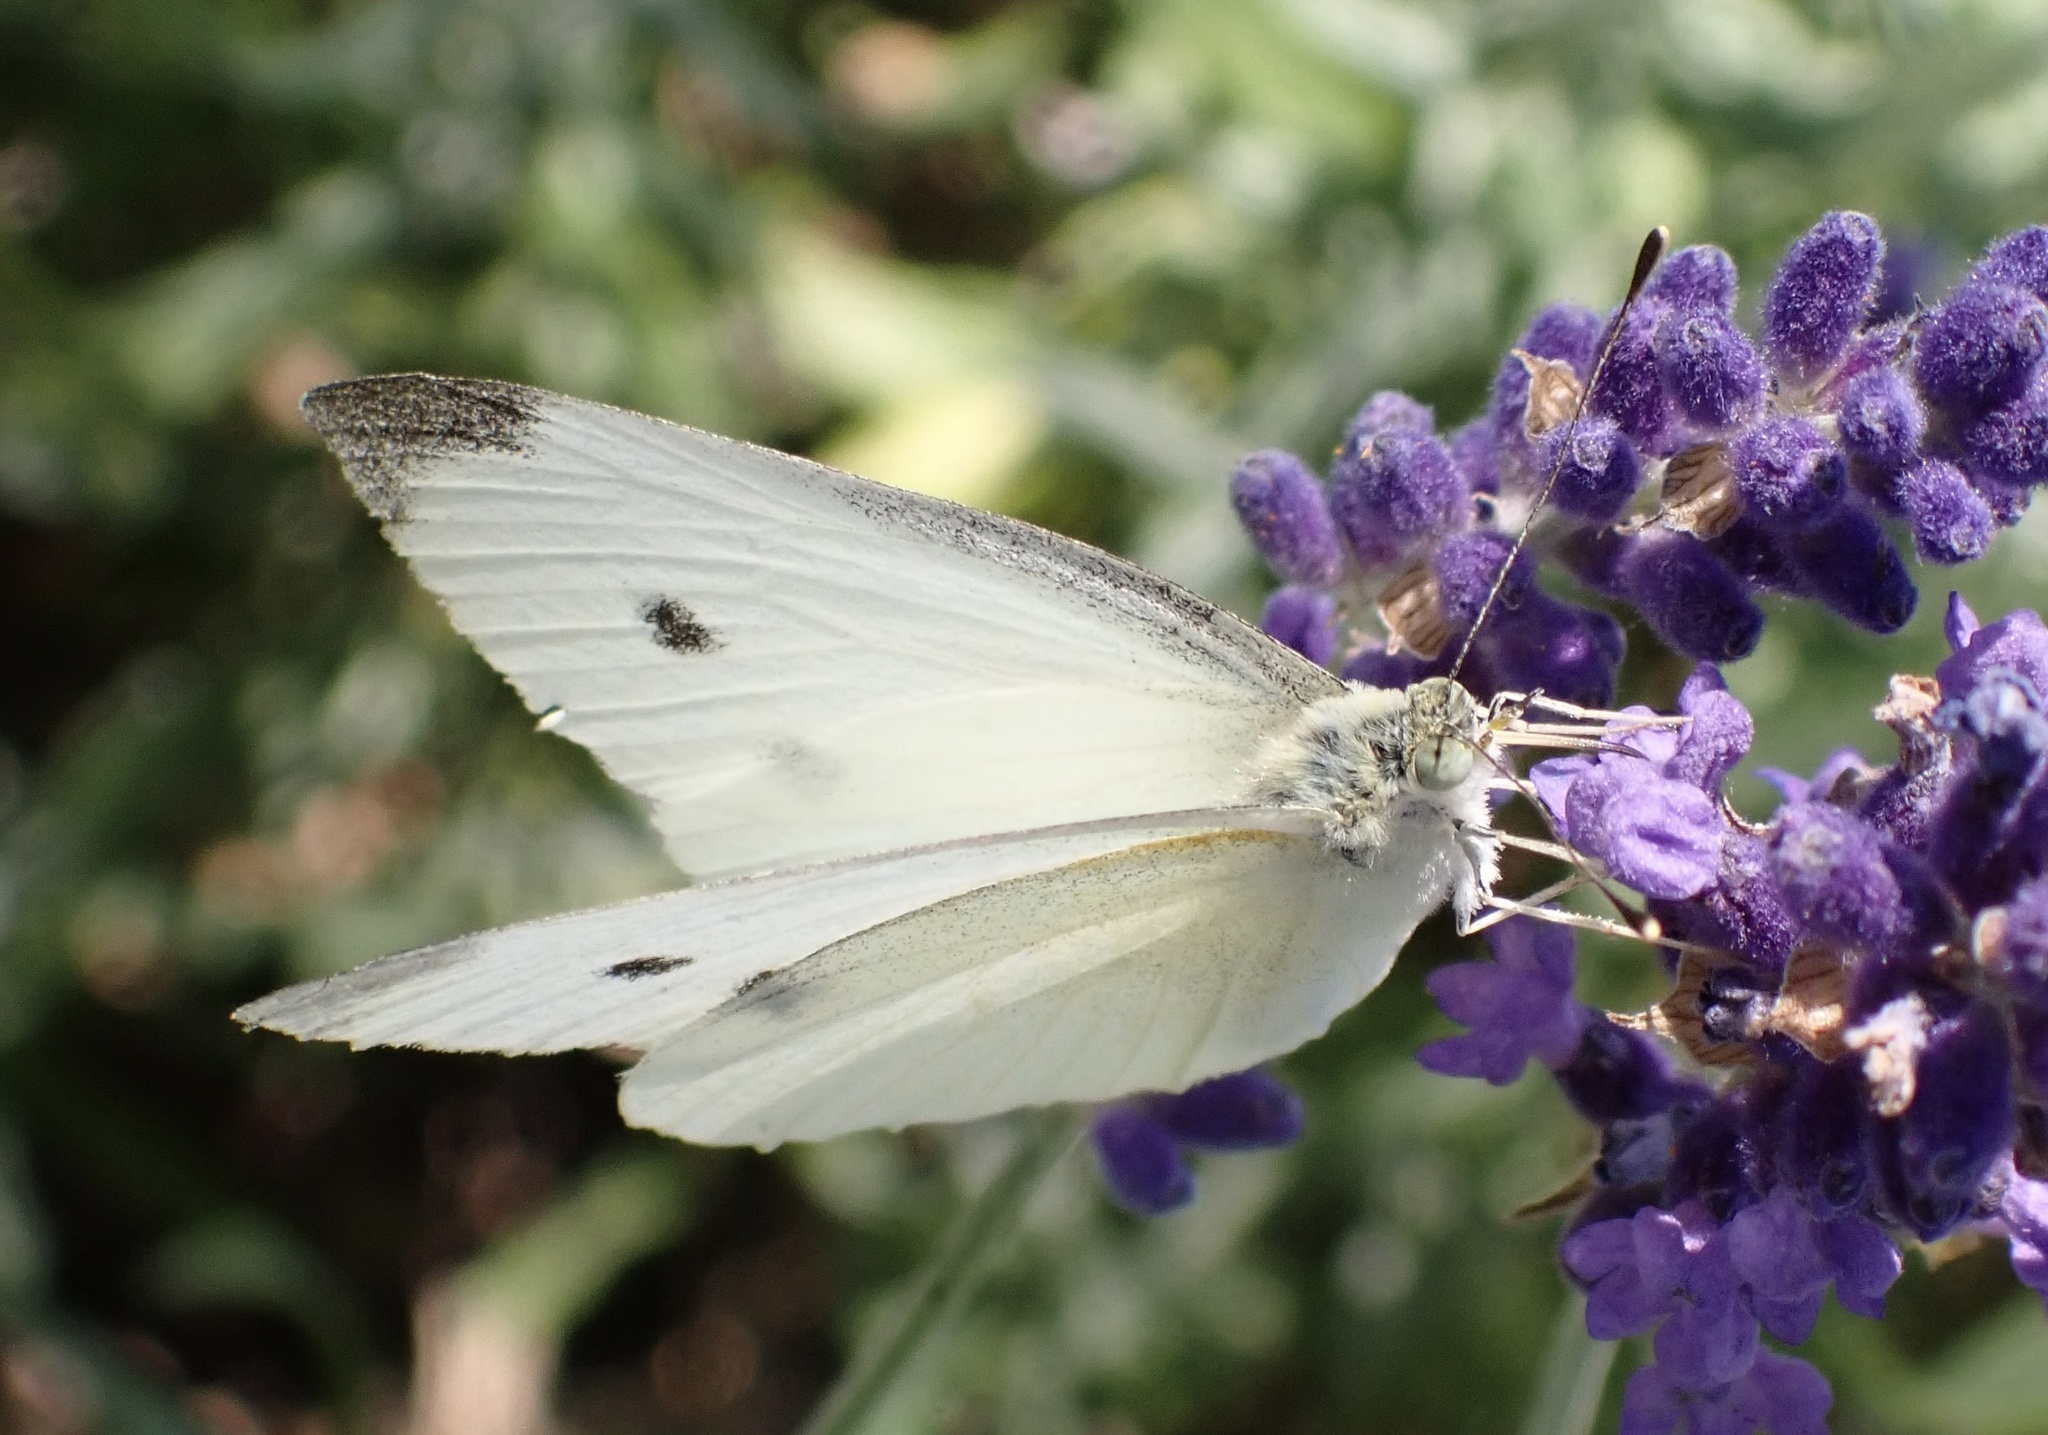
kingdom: Animalia
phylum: Arthropoda
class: Insecta
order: Lepidoptera
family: Pieridae
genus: Pieris
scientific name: Pieris rapae
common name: Small white
